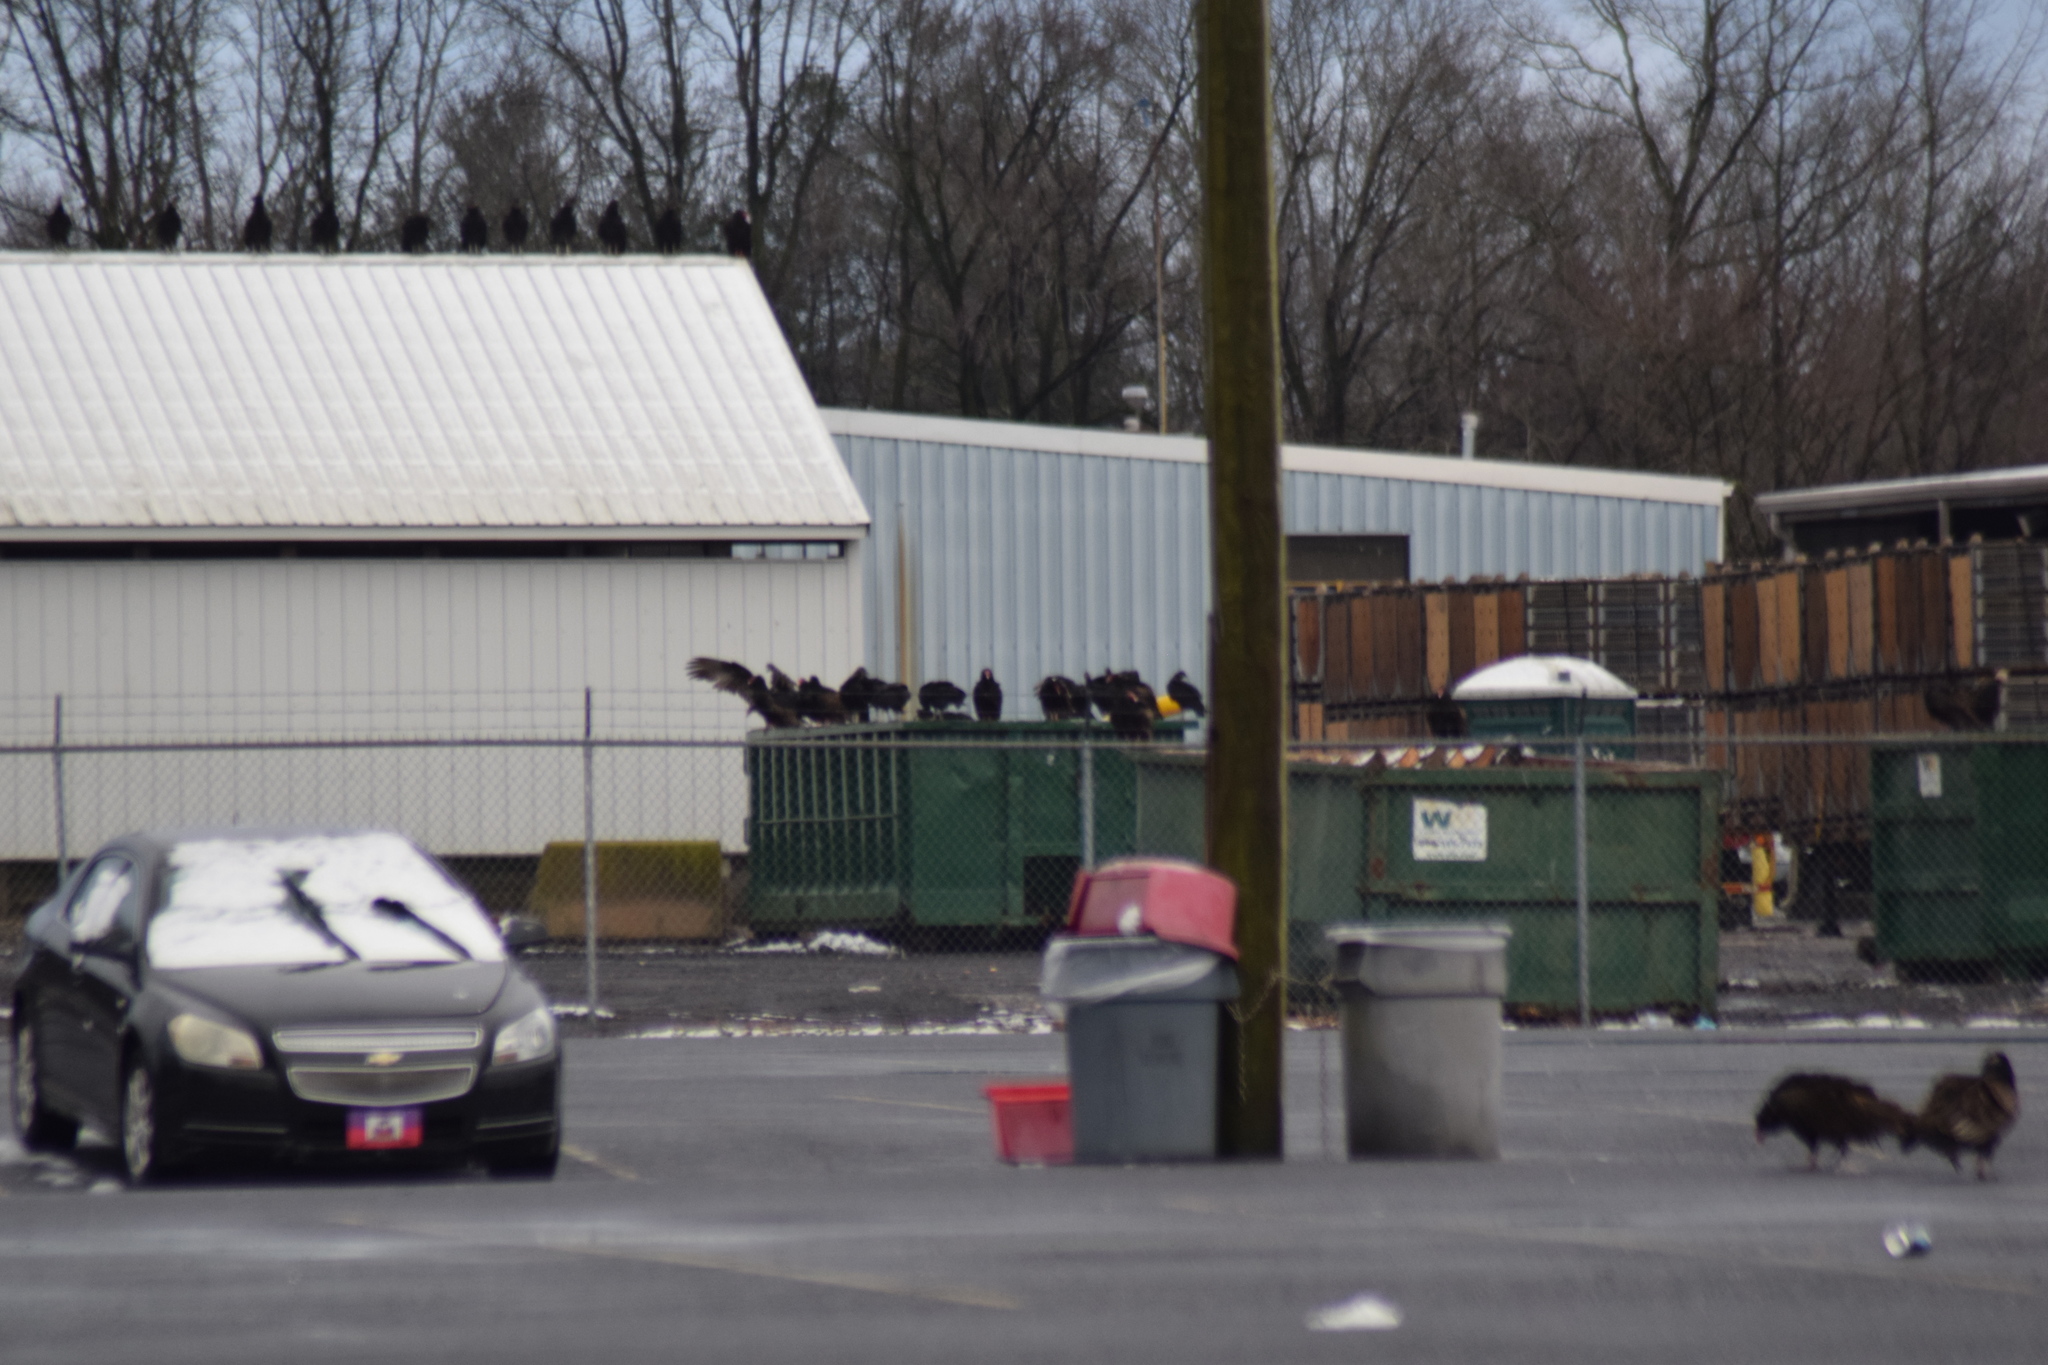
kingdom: Animalia
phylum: Chordata
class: Aves
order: Accipitriformes
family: Cathartidae
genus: Cathartes
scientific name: Cathartes aura
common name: Turkey vulture
